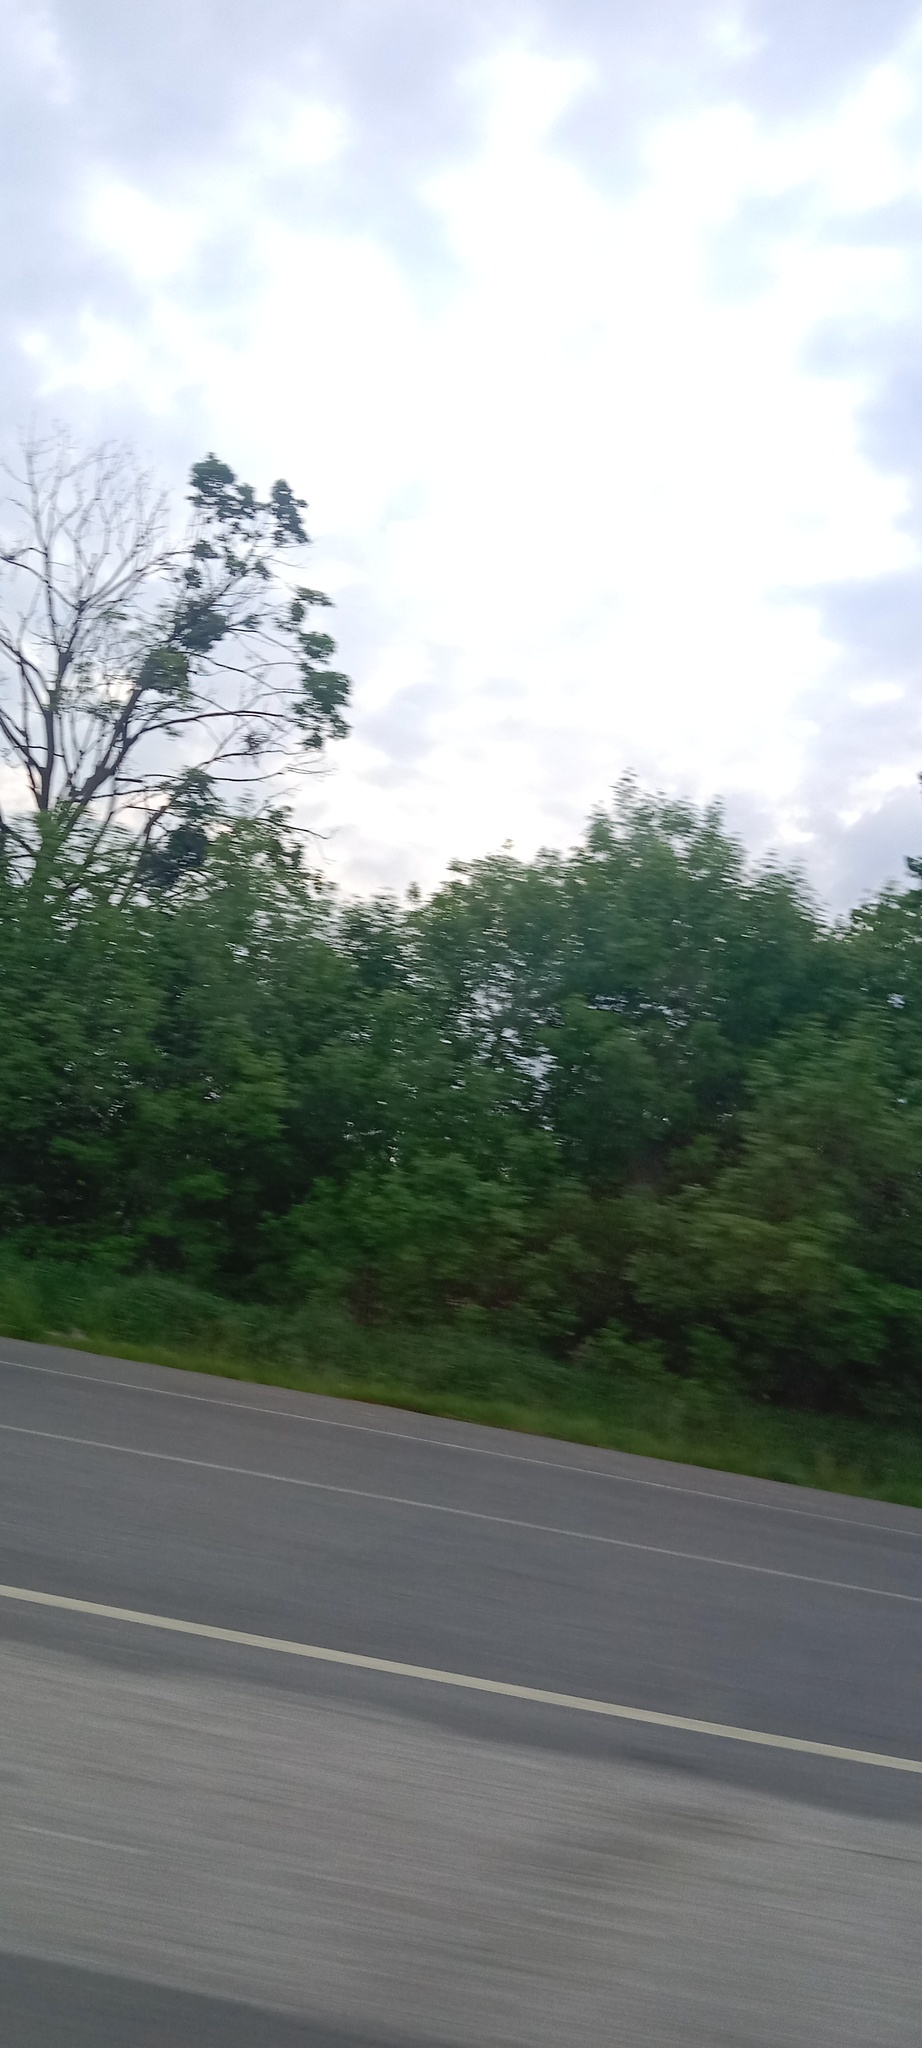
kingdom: Plantae
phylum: Tracheophyta
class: Magnoliopsida
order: Santalales
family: Viscaceae
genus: Viscum
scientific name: Viscum album
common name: Mistletoe
